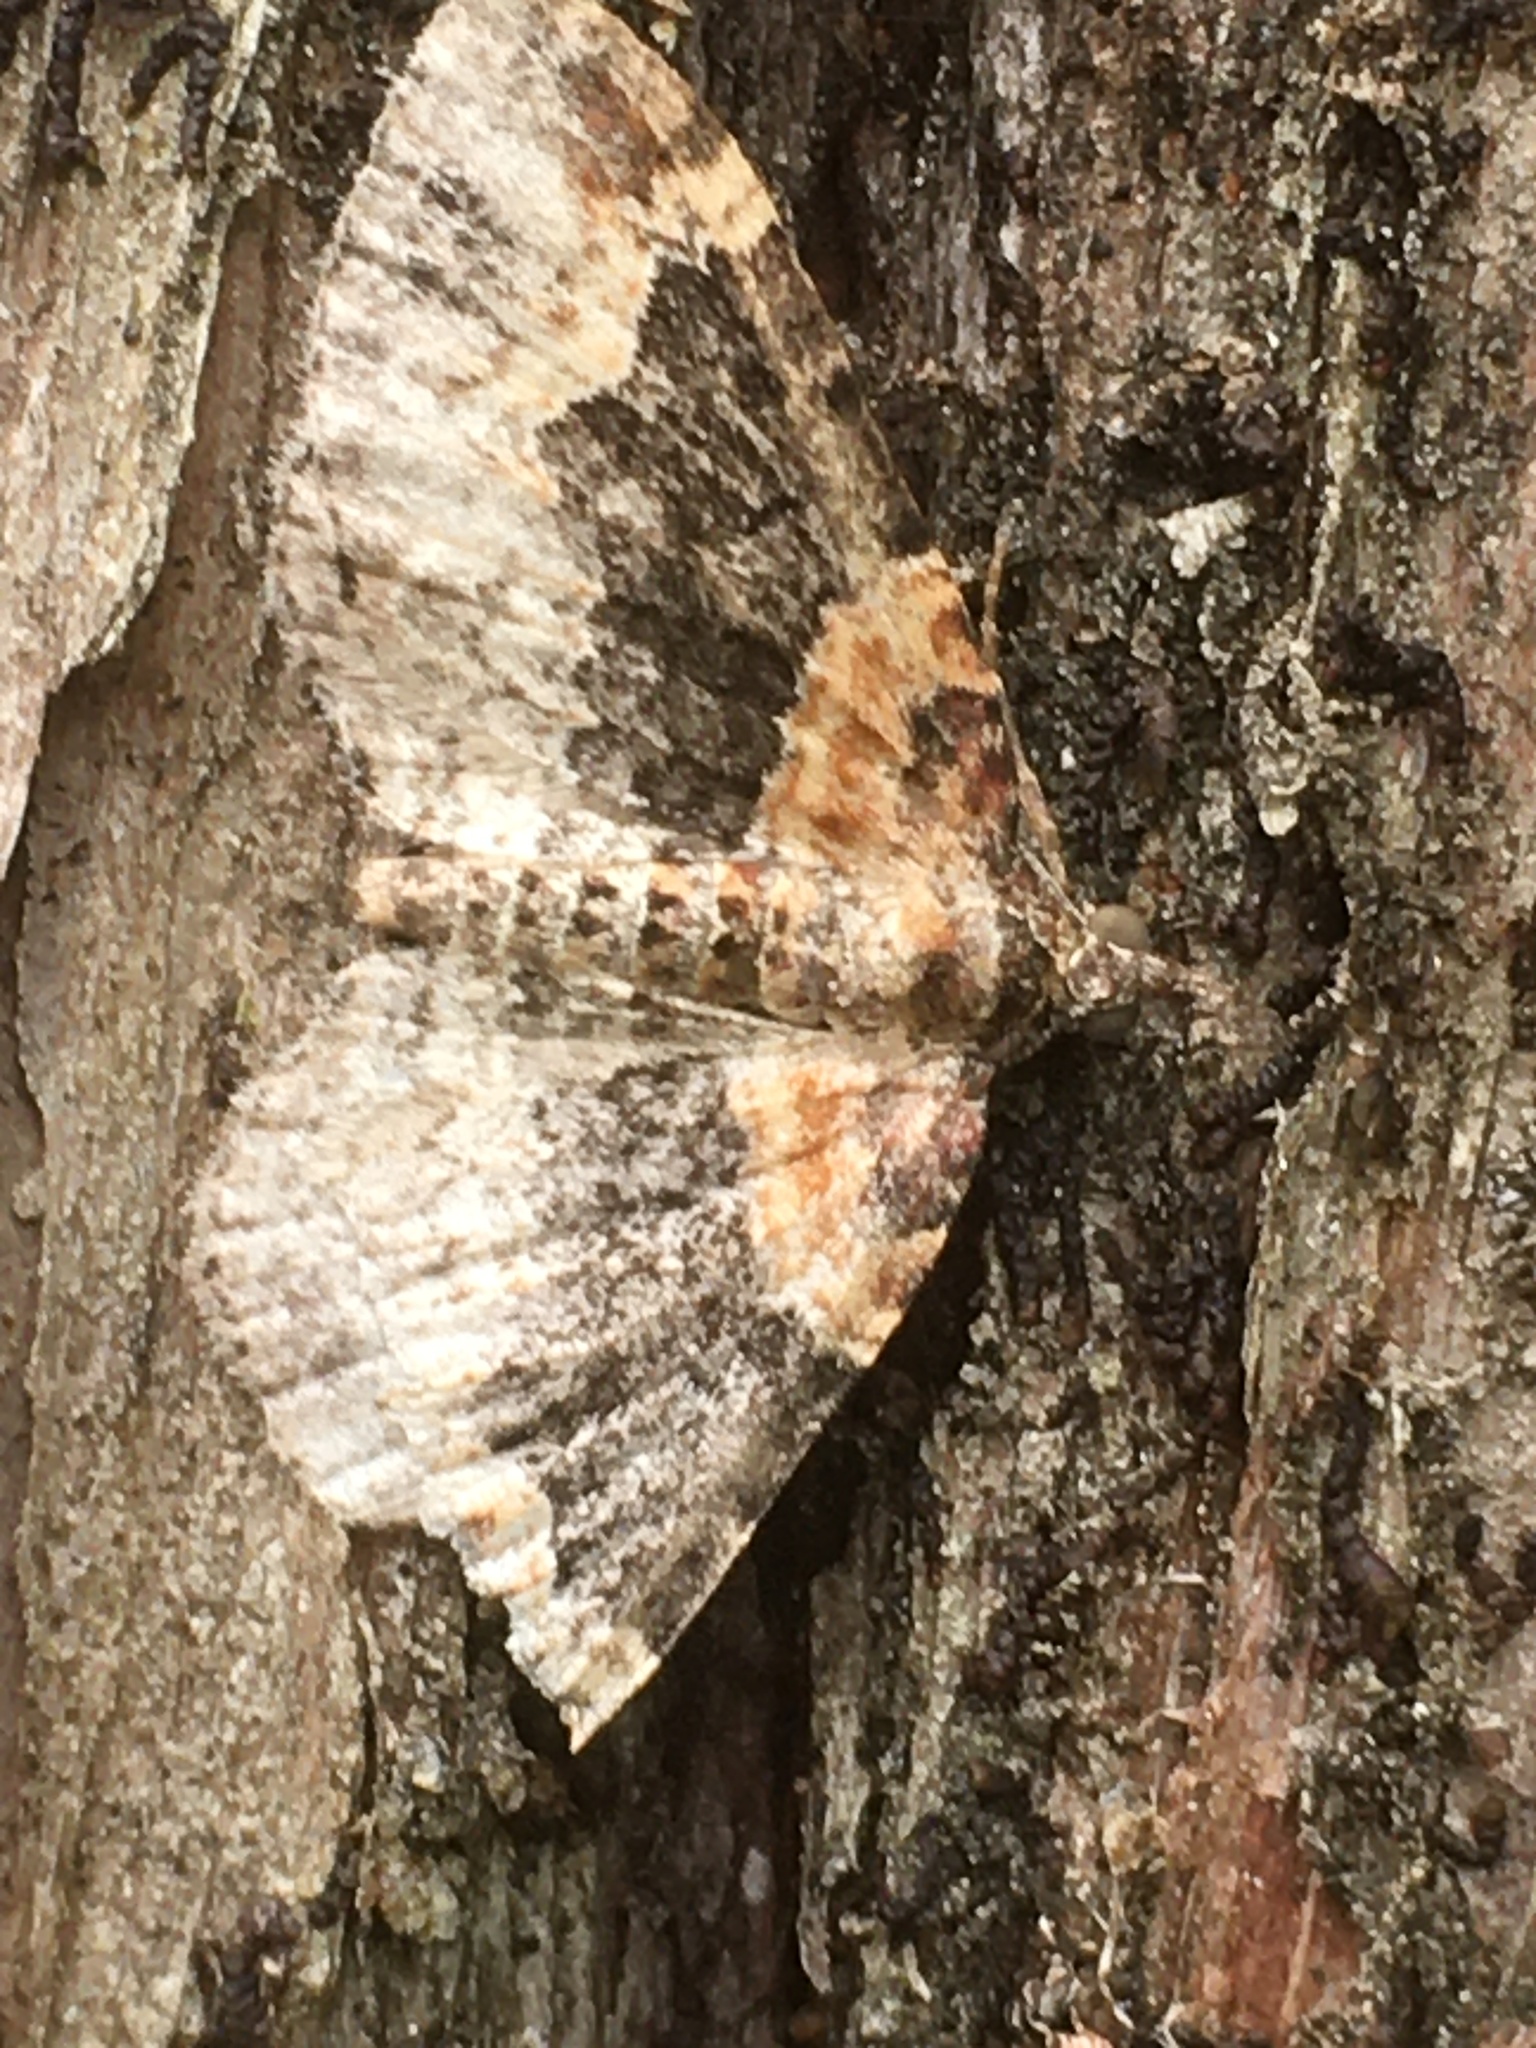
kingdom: Animalia
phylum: Arthropoda
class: Insecta
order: Lepidoptera
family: Geometridae
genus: Xanthorhoe
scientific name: Xanthorhoe ferrugata
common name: Dark-barred twin-spot carpet
